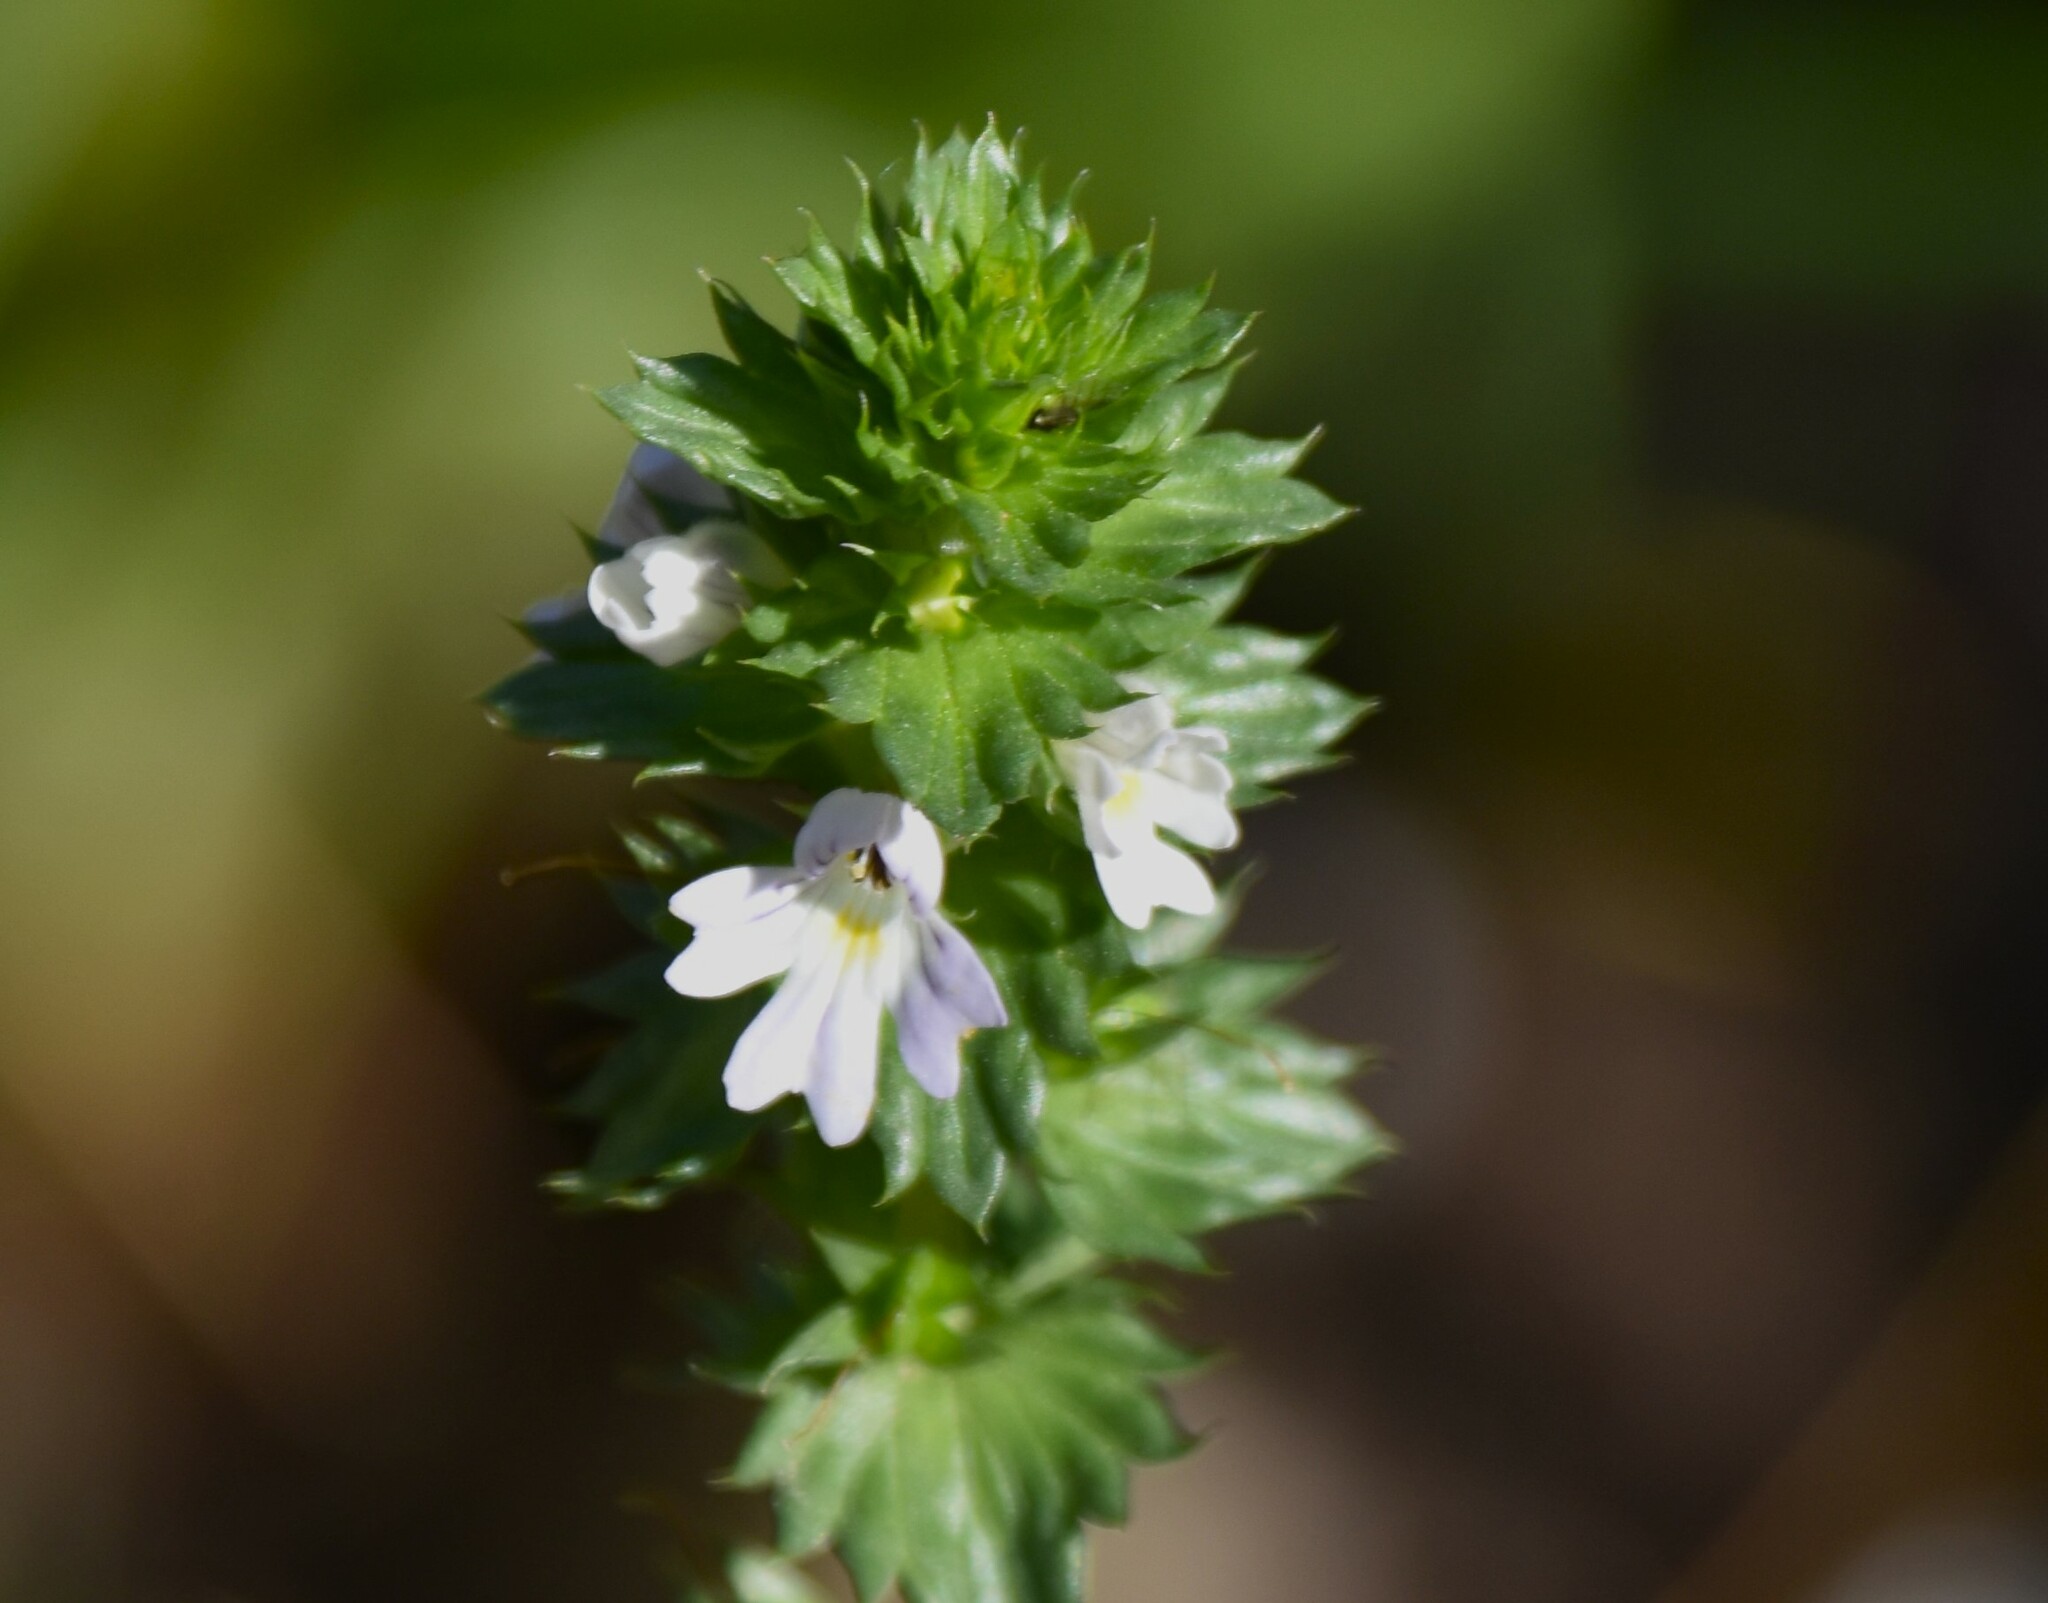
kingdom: Plantae
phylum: Tracheophyta
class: Magnoliopsida
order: Lamiales
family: Orobanchaceae
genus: Euphrasia
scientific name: Euphrasia nemorosa
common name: Common eyebright
